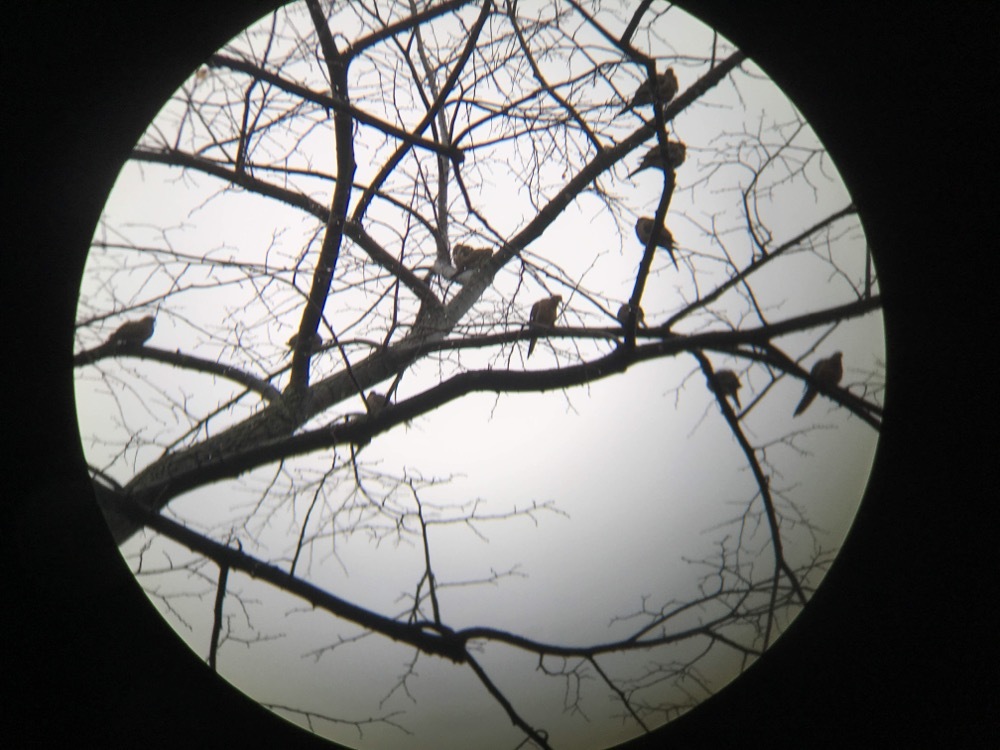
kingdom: Animalia
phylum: Chordata
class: Aves
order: Columbiformes
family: Columbidae
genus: Zenaida
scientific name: Zenaida macroura
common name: Mourning dove
